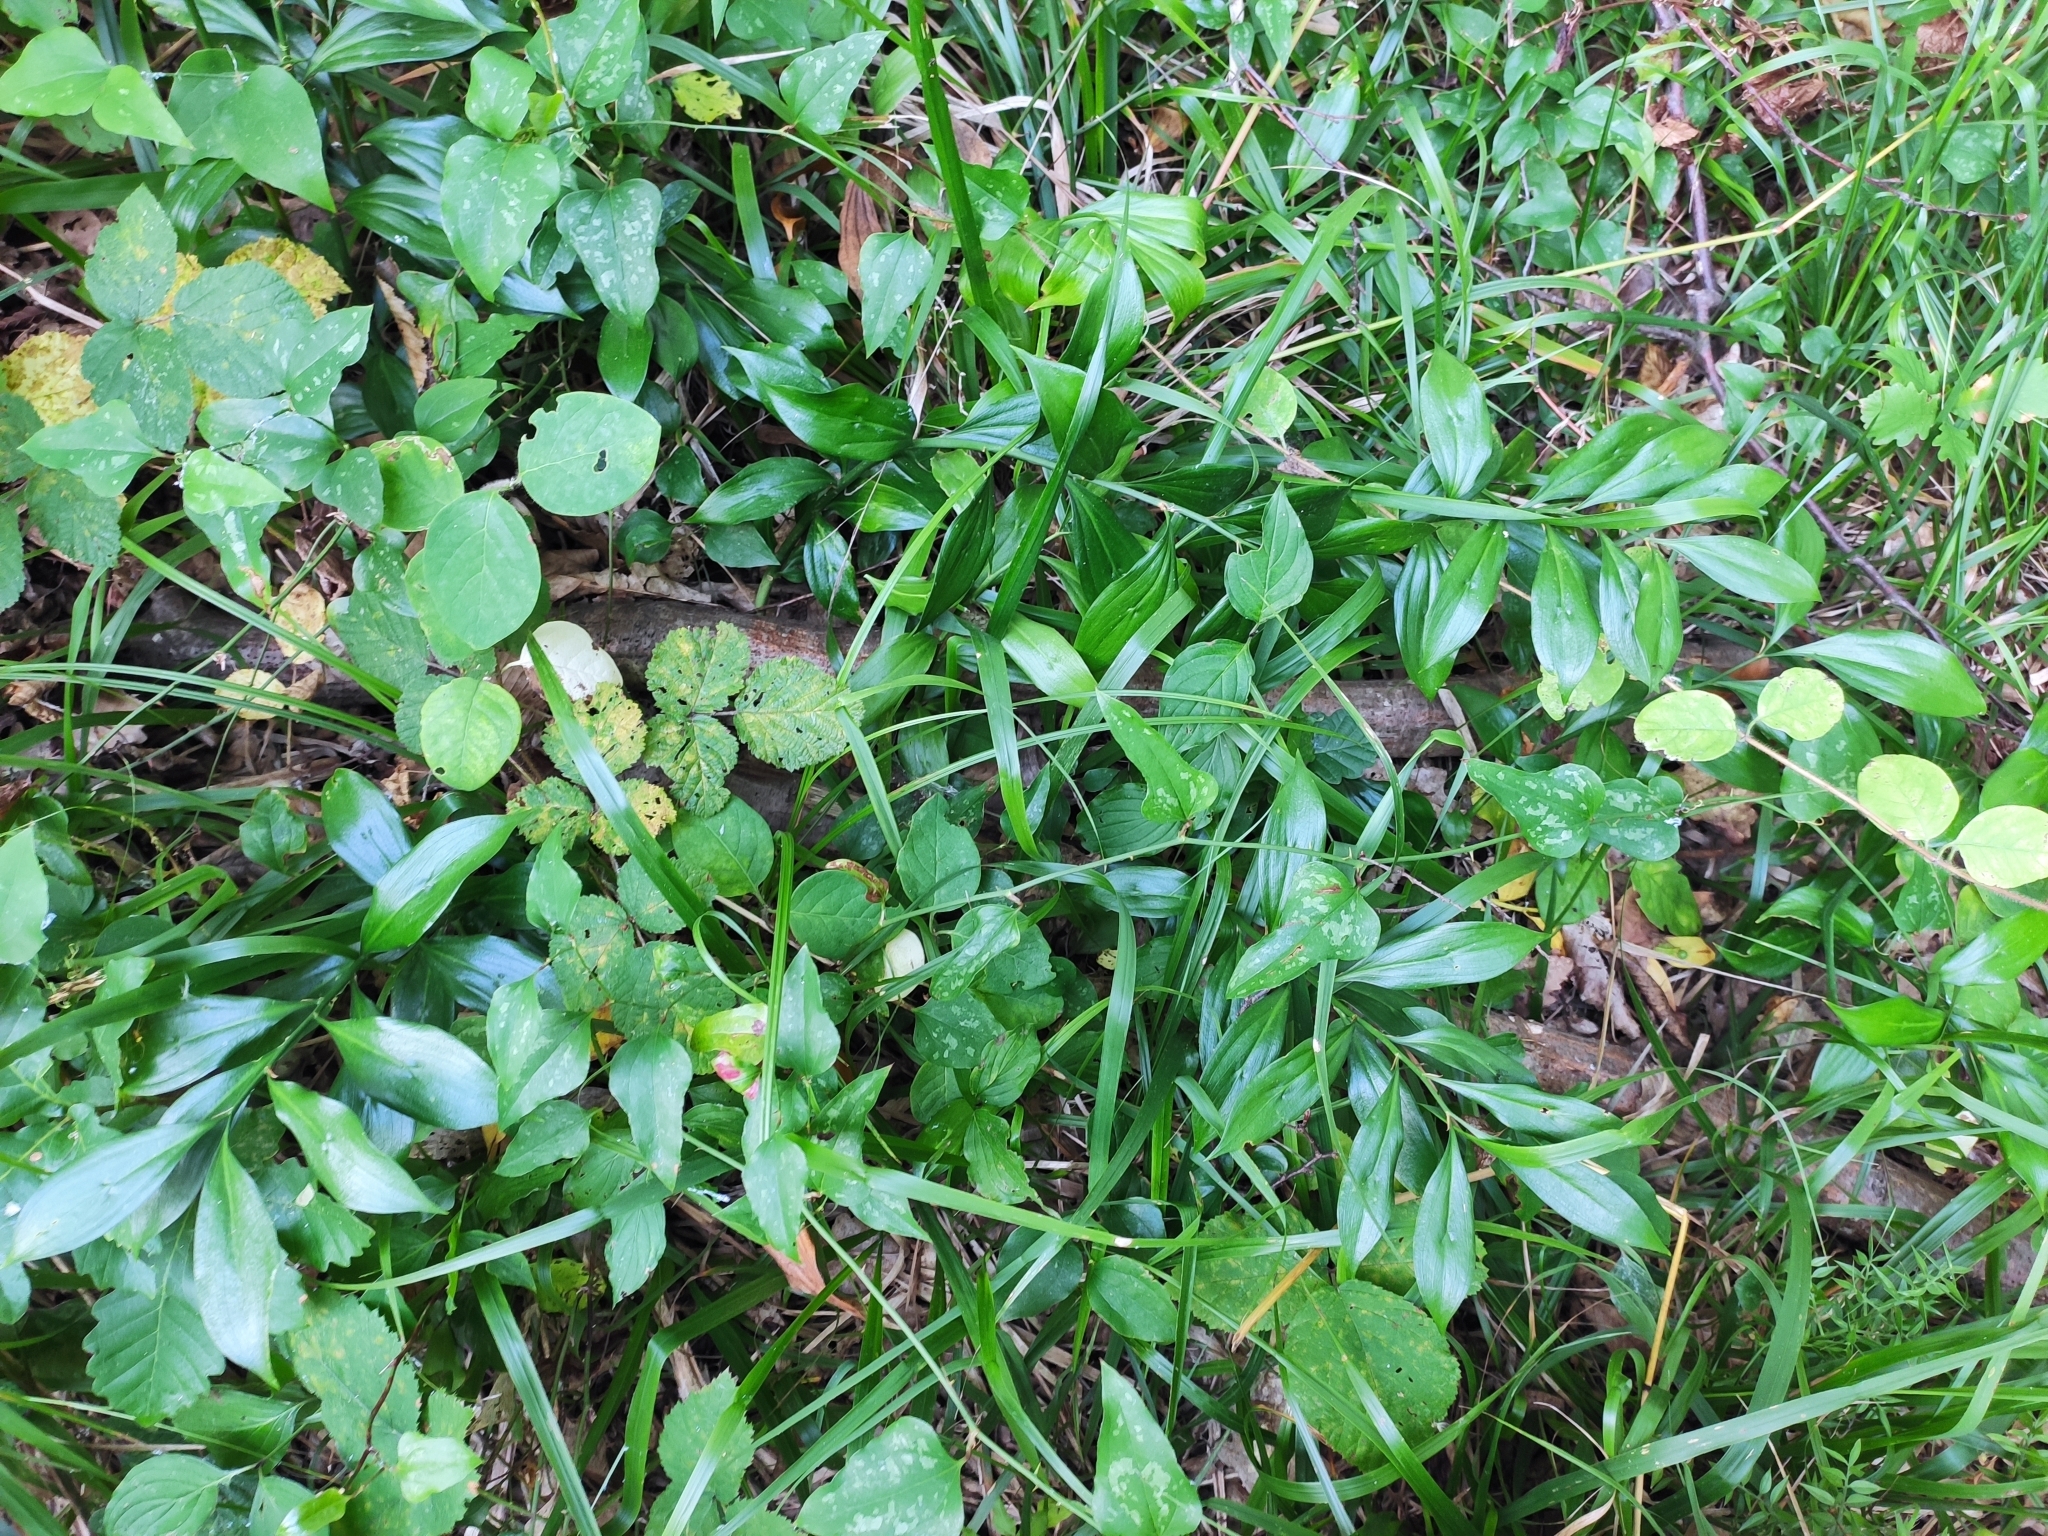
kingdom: Plantae
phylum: Tracheophyta
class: Liliopsida
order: Asparagales
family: Asparagaceae
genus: Ruscus
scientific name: Ruscus colchicus
